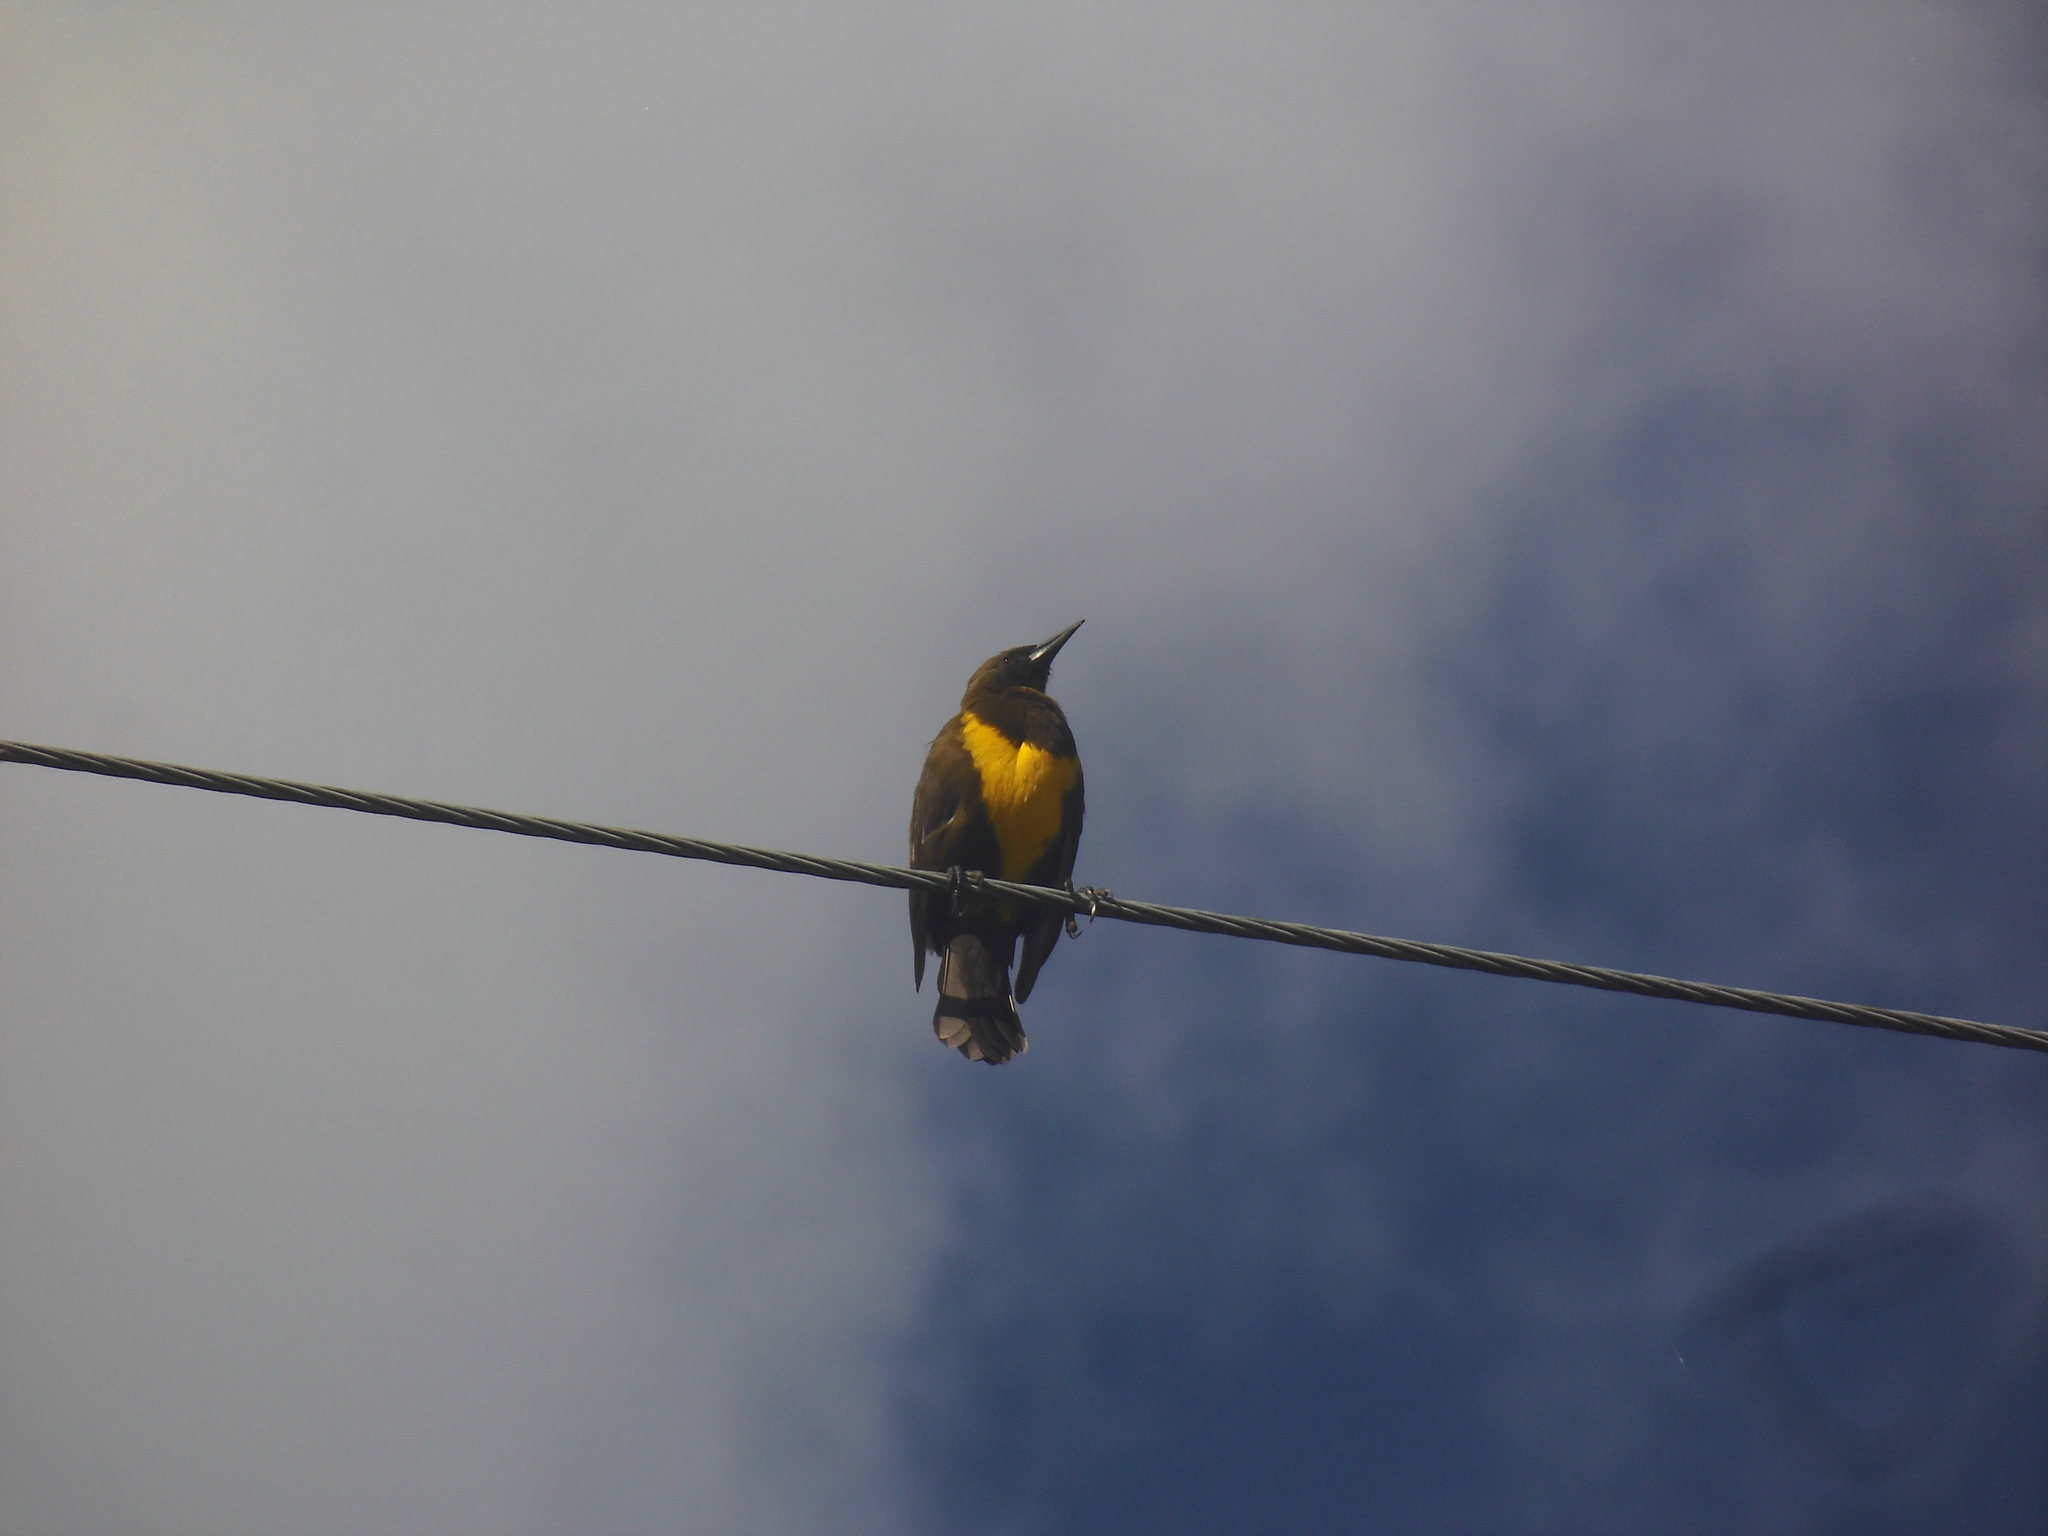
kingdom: Animalia
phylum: Chordata
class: Aves
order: Passeriformes
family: Icteridae
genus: Pseudoleistes
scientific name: Pseudoleistes virescens
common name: Brown-and-yellow marshbird
